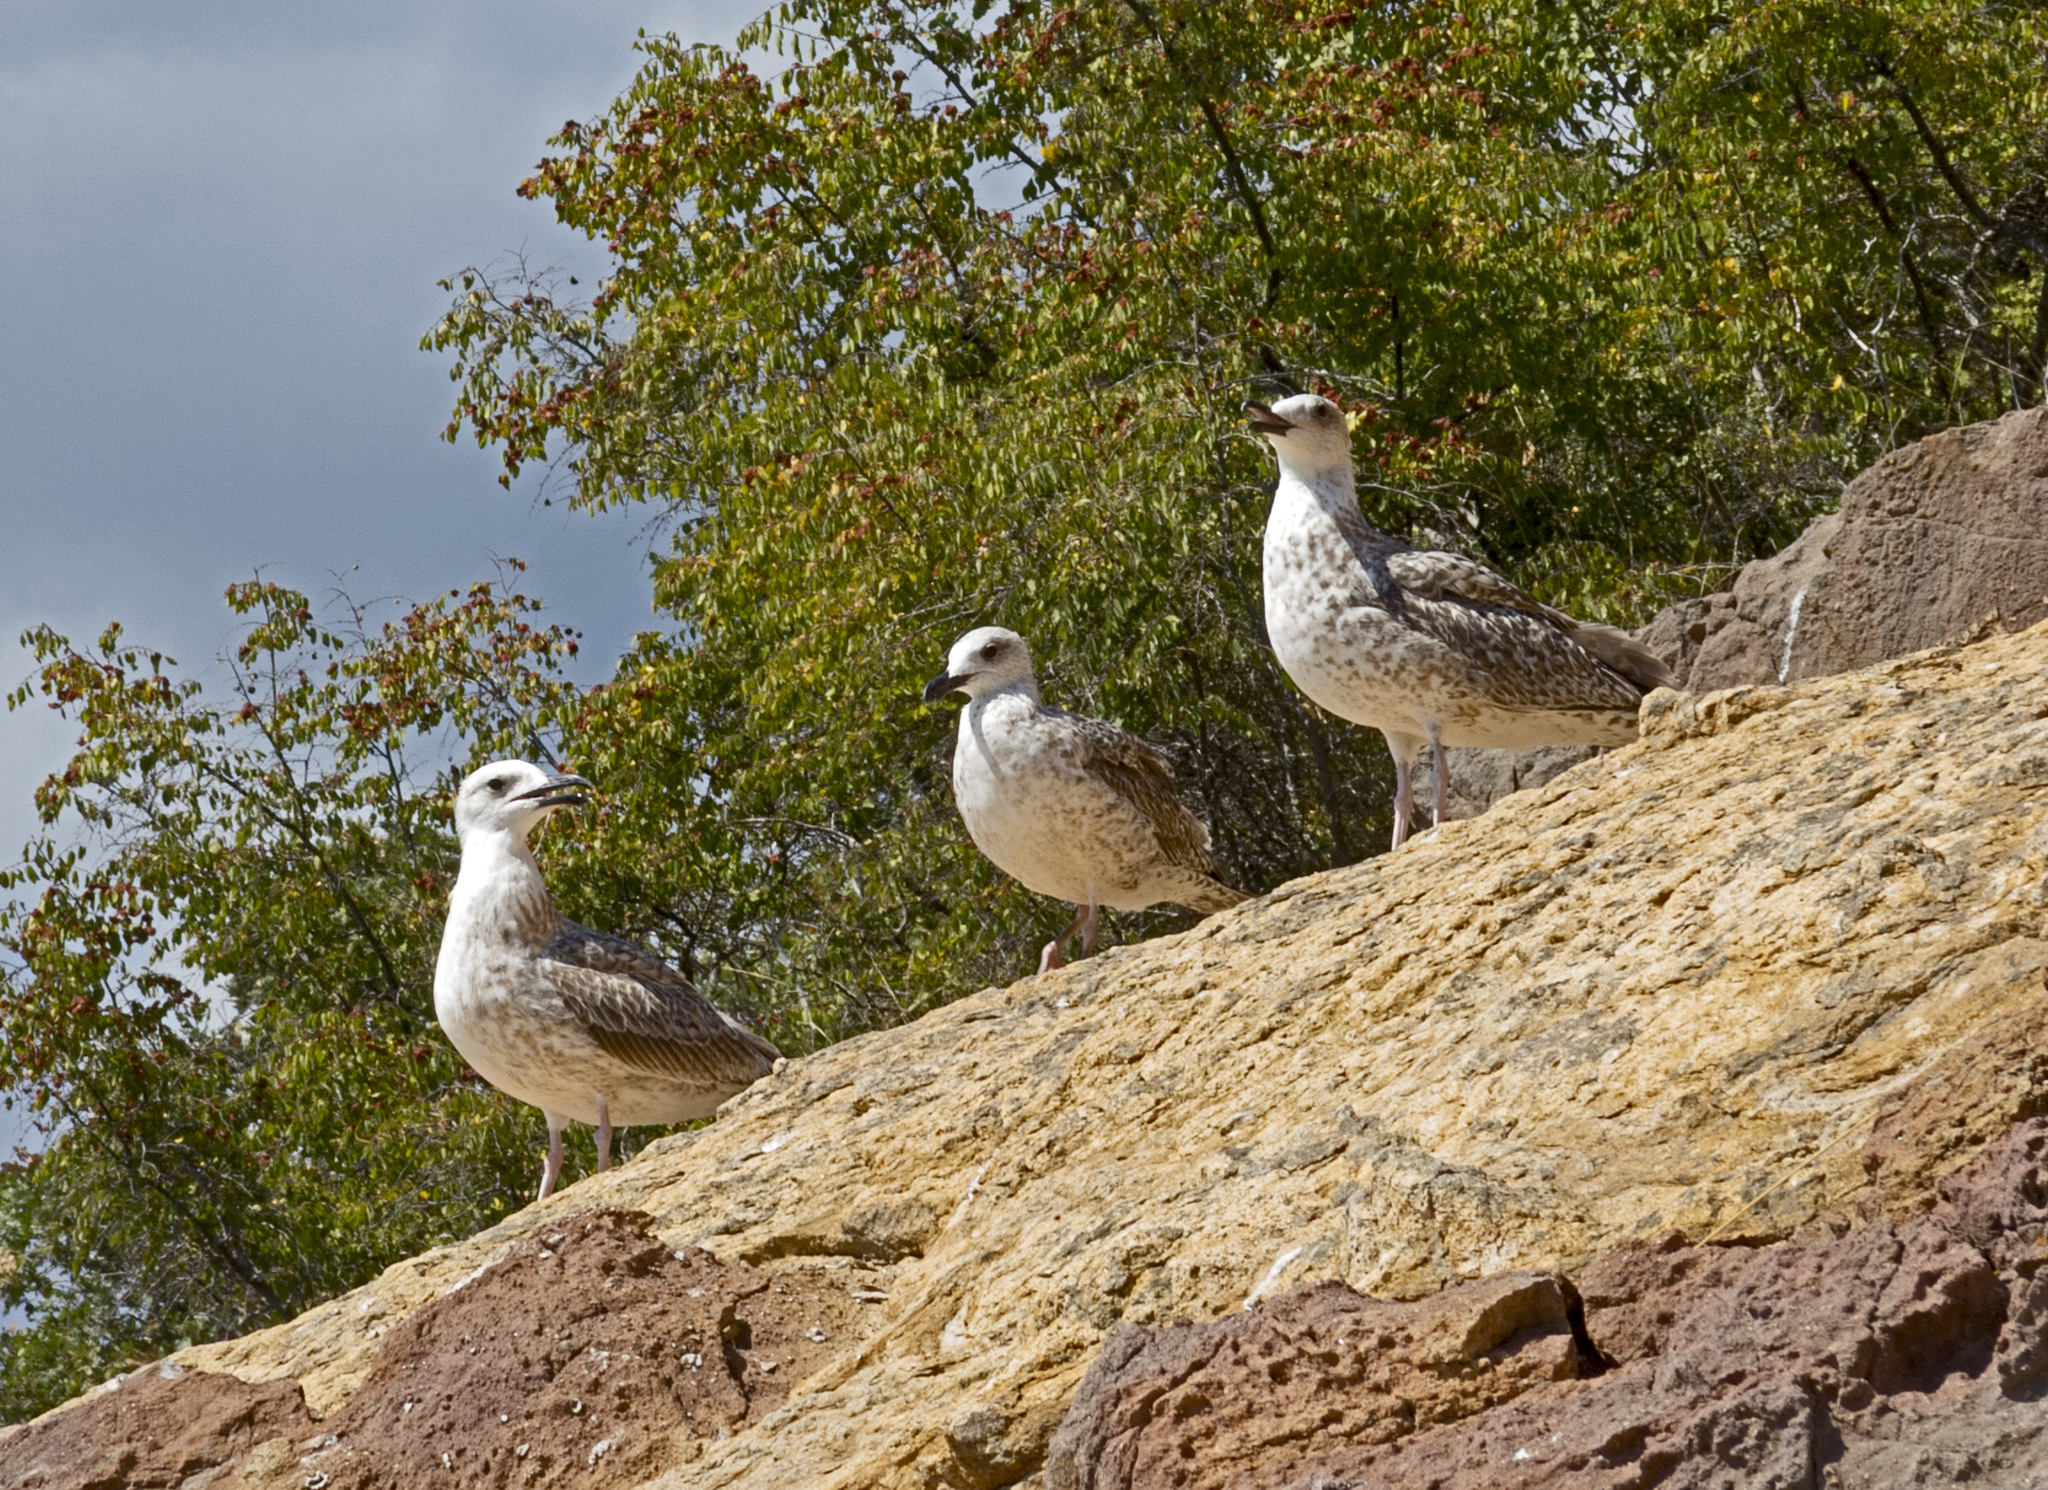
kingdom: Animalia
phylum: Chordata
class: Aves
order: Charadriiformes
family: Laridae
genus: Larus
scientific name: Larus cachinnans
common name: Caspian gull
